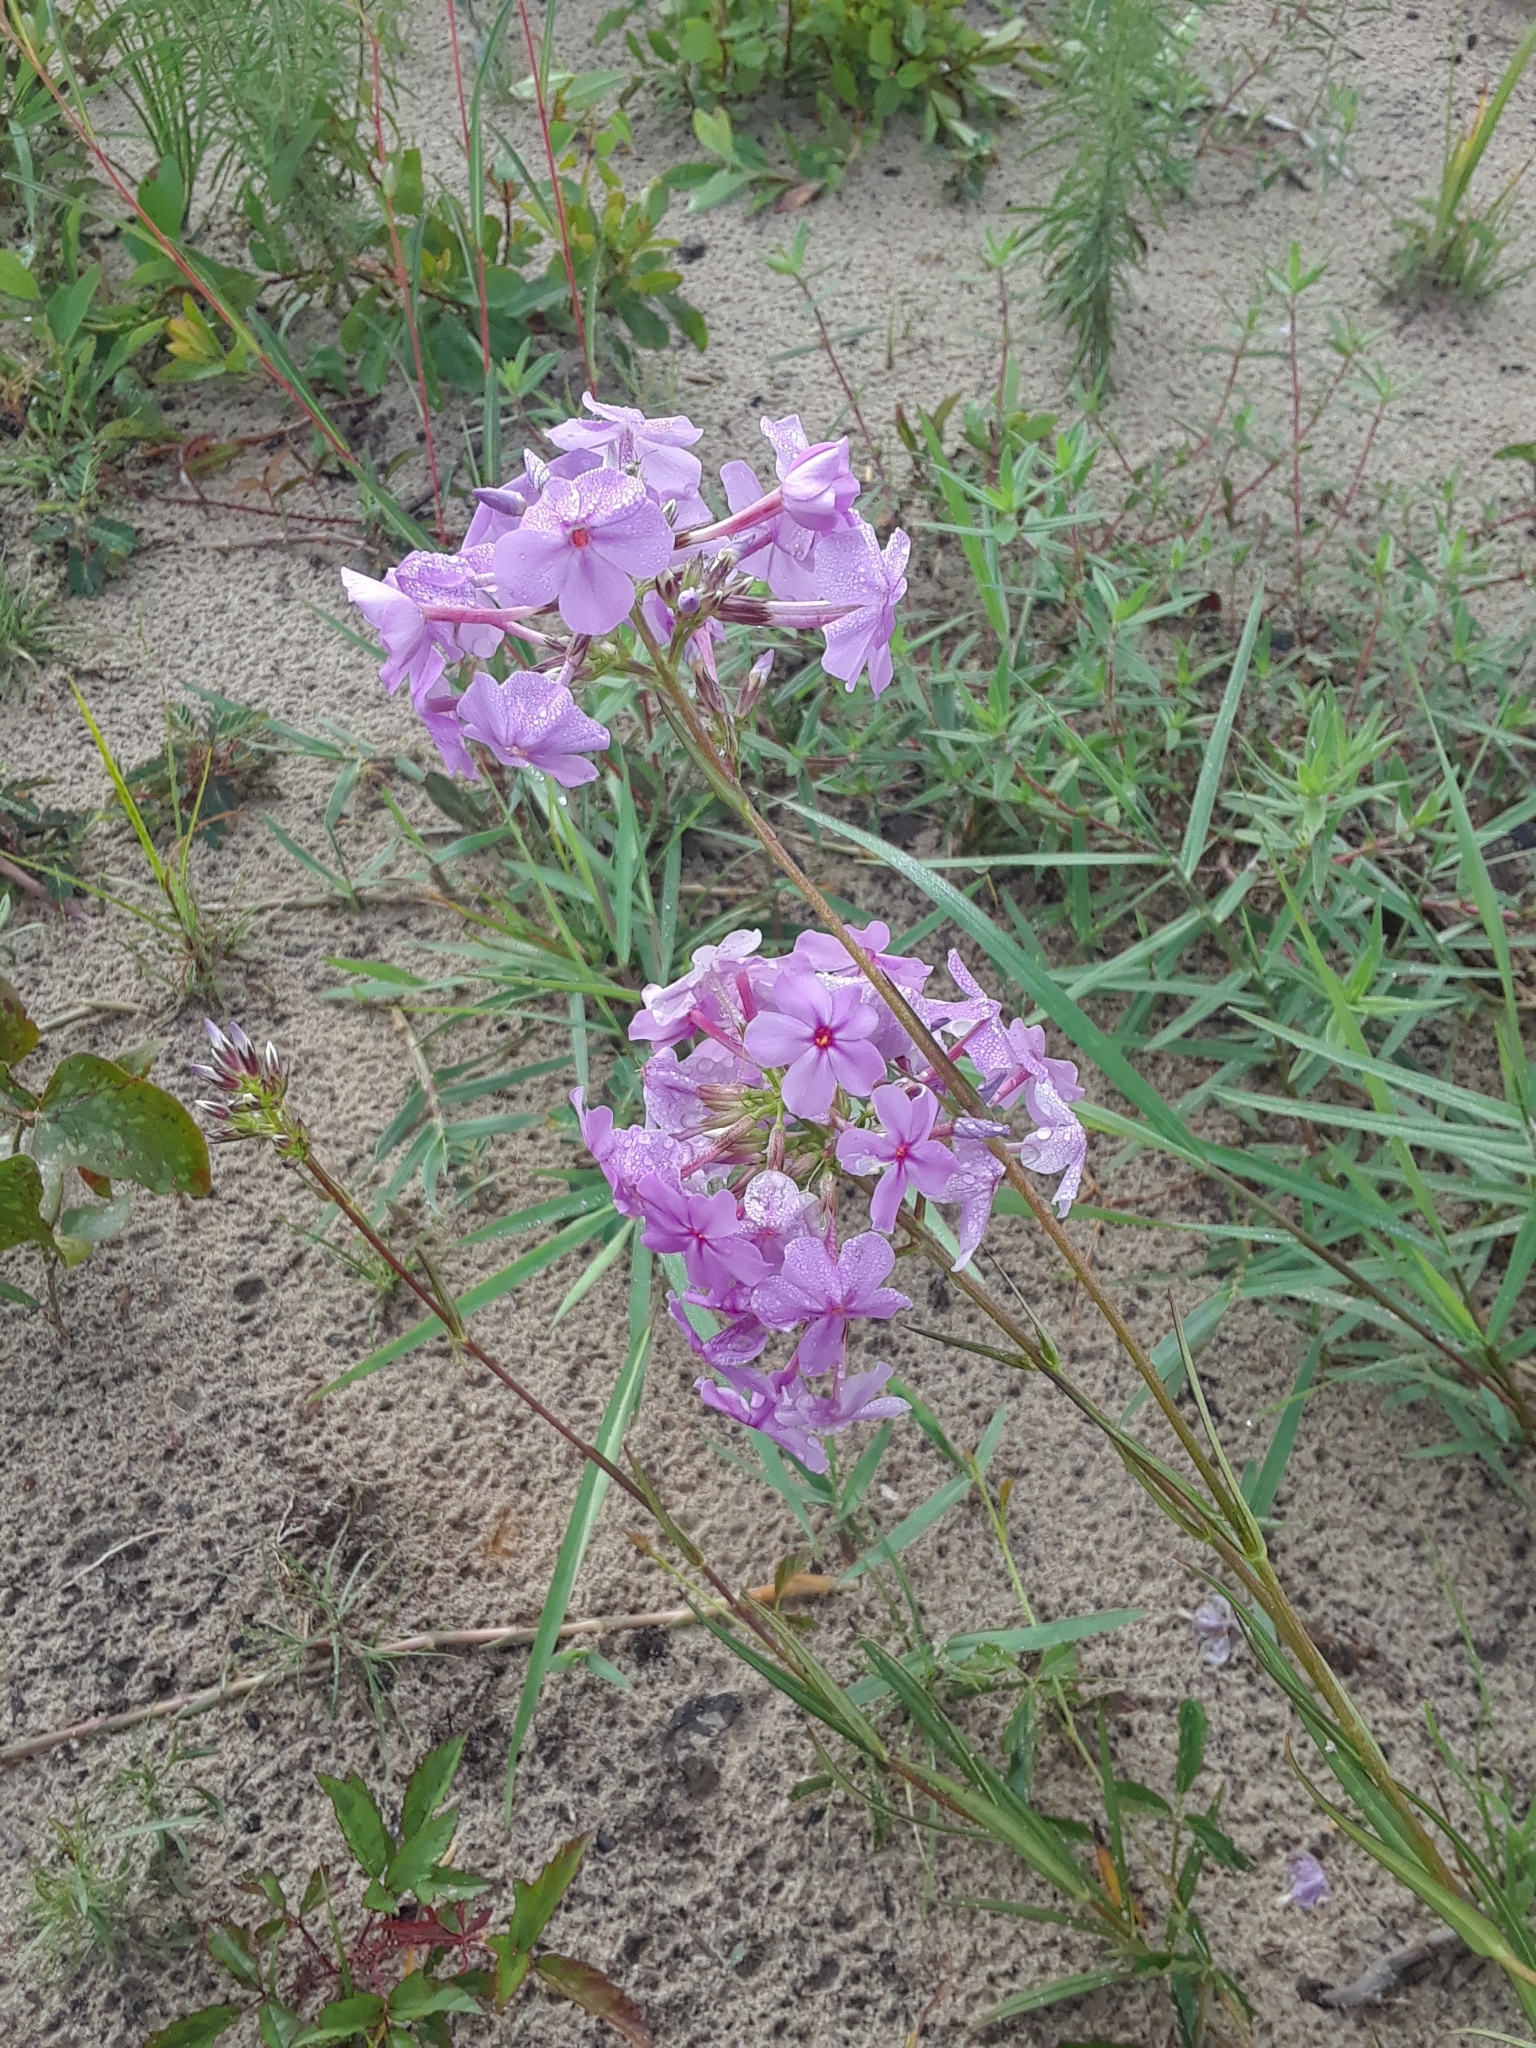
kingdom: Plantae
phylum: Tracheophyta
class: Magnoliopsida
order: Ericales
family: Polemoniaceae
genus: Phlox
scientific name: Phlox carolina
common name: Thick-leaf phlox
